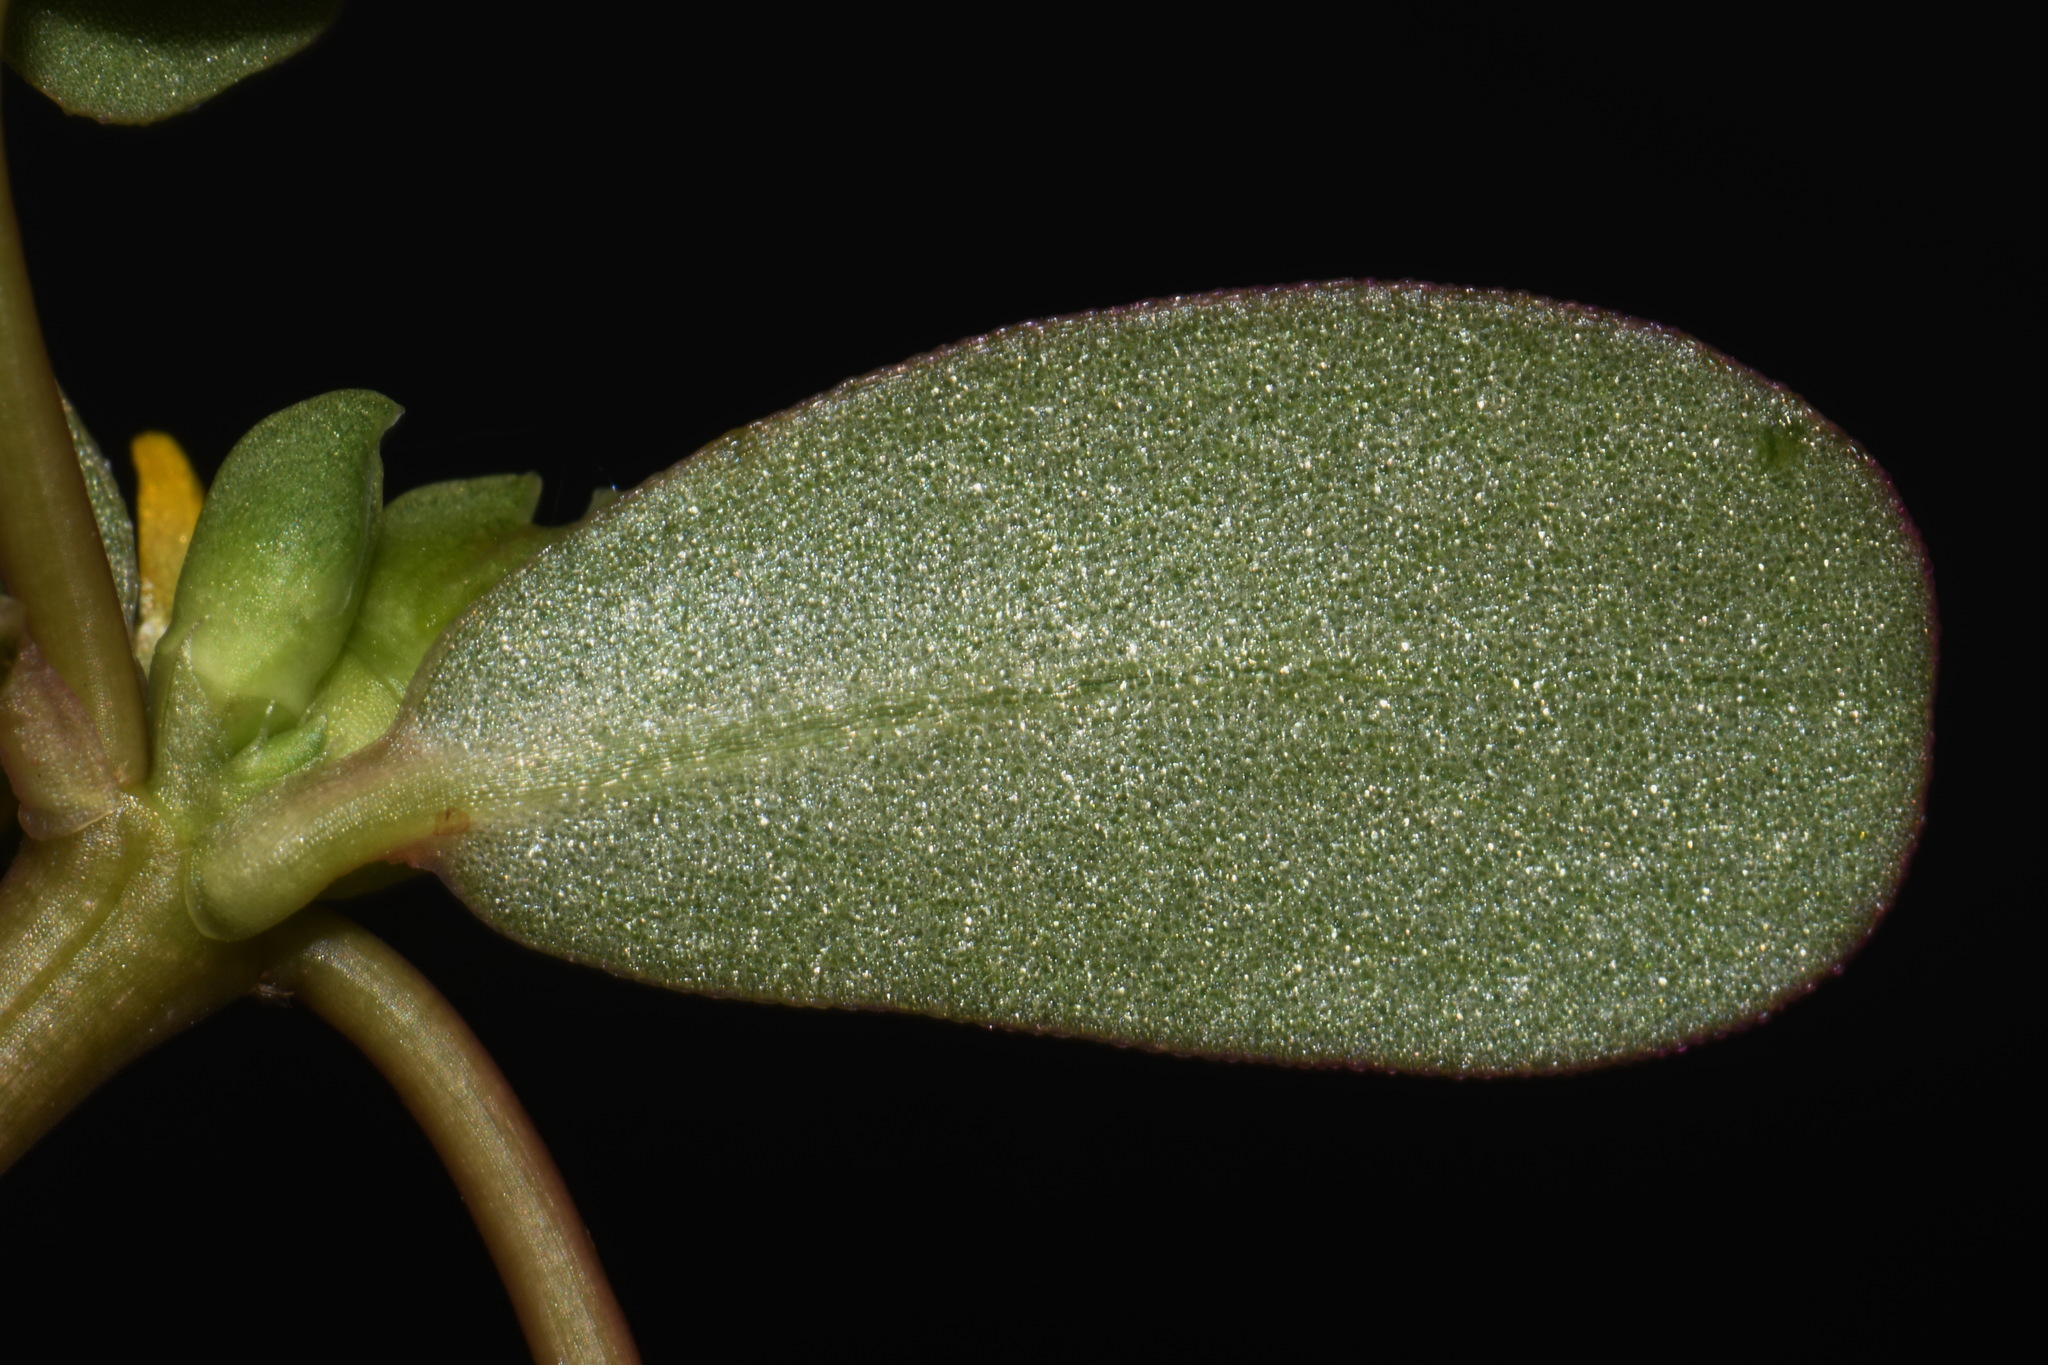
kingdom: Plantae
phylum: Tracheophyta
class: Magnoliopsida
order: Caryophyllales
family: Portulacaceae
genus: Portulaca
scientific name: Portulaca oleracea
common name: Common purslane
